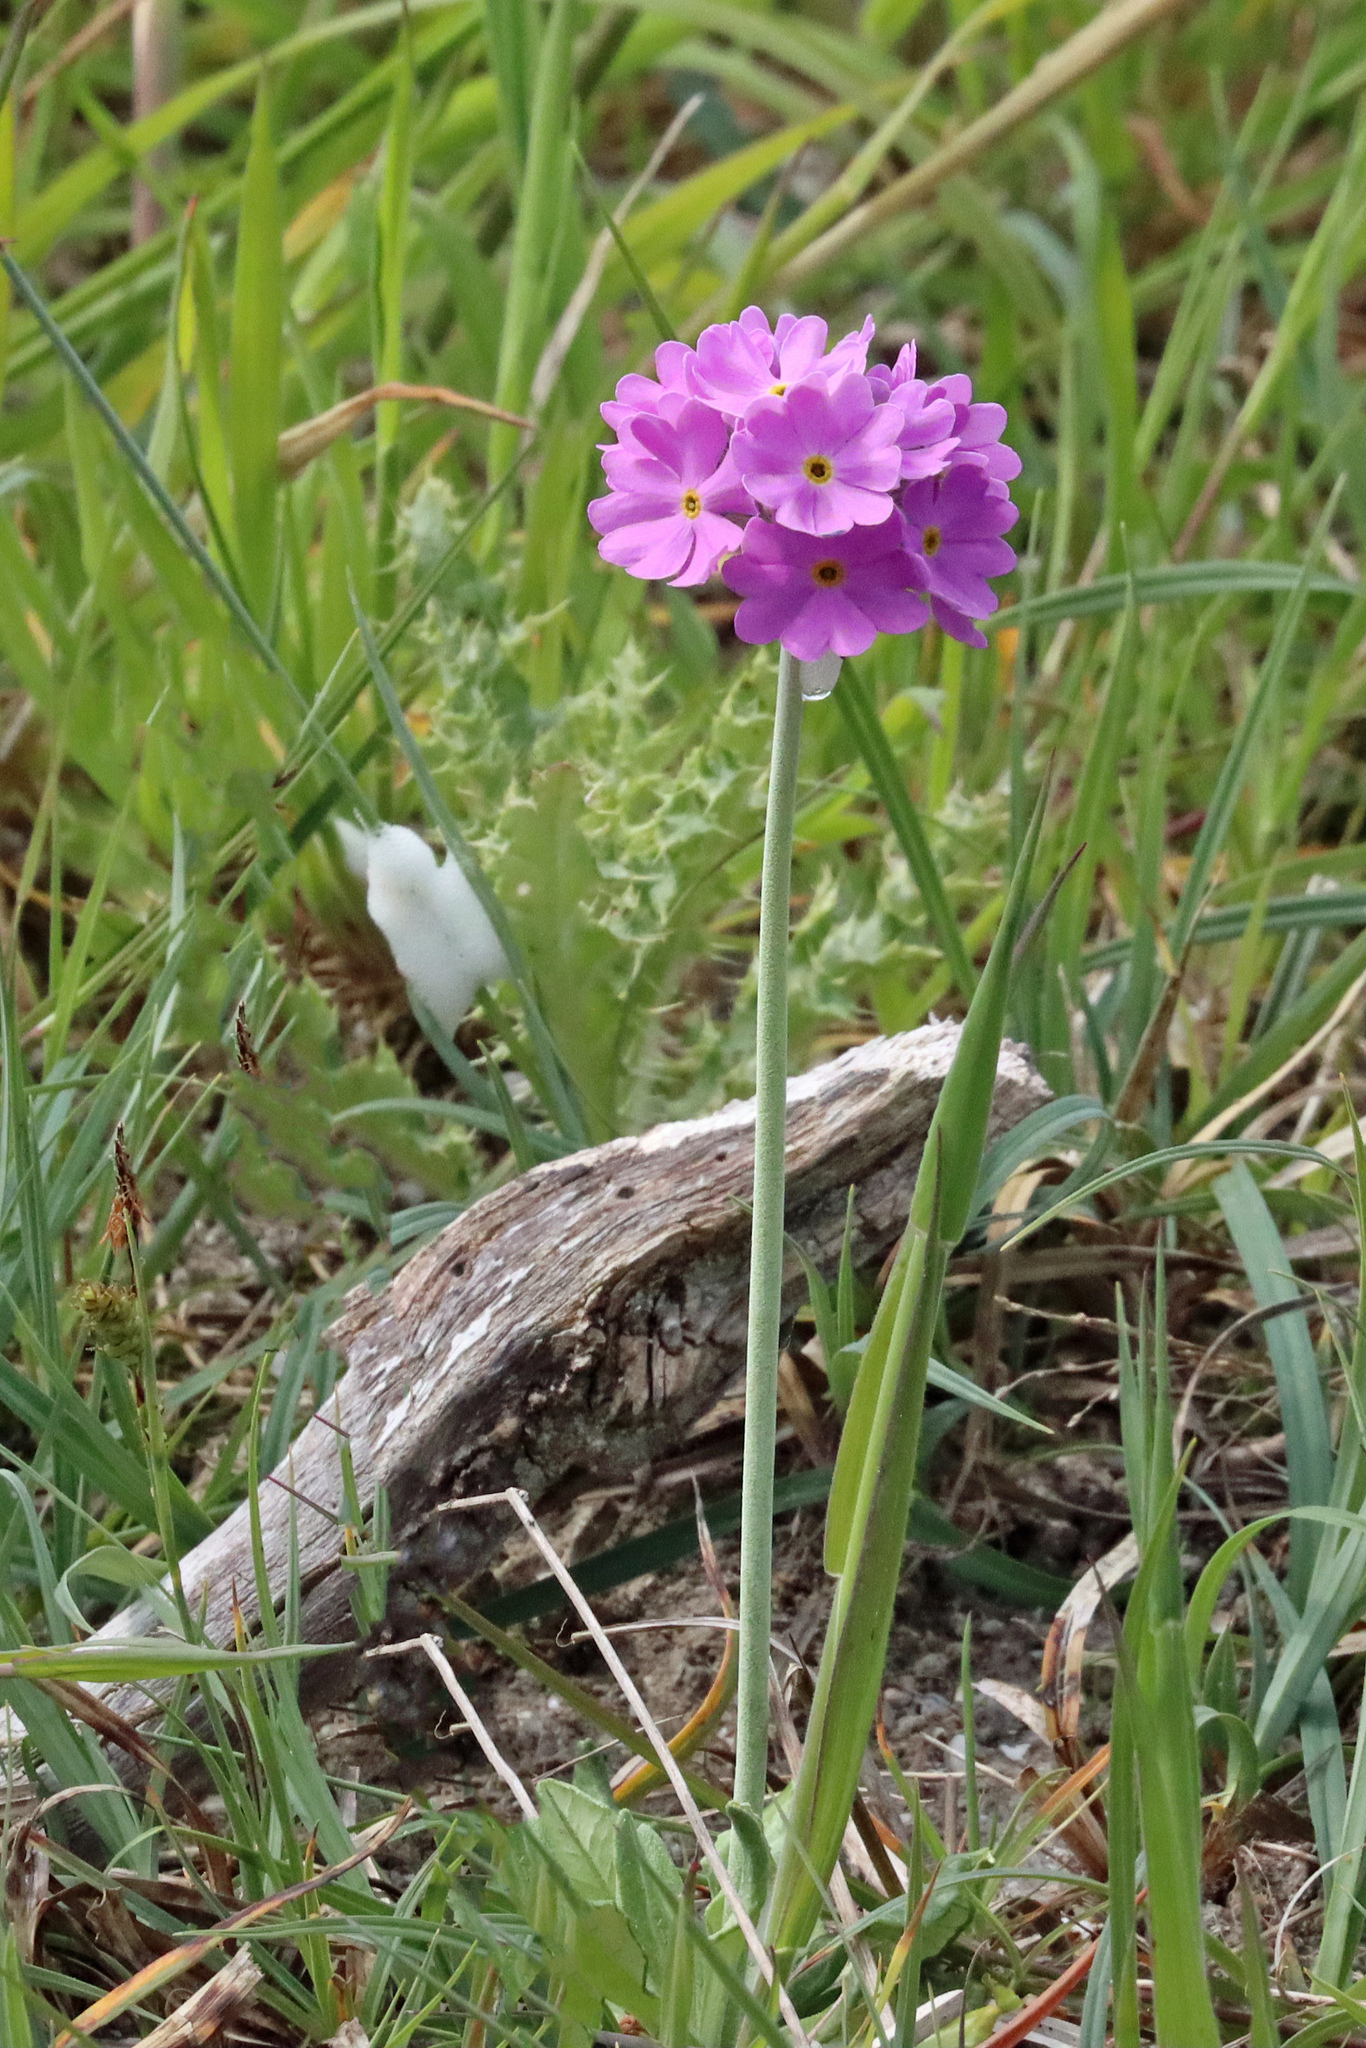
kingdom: Plantae
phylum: Tracheophyta
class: Magnoliopsida
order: Ericales
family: Primulaceae
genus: Primula
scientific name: Primula farinosa
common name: Bird's-eye primrose
